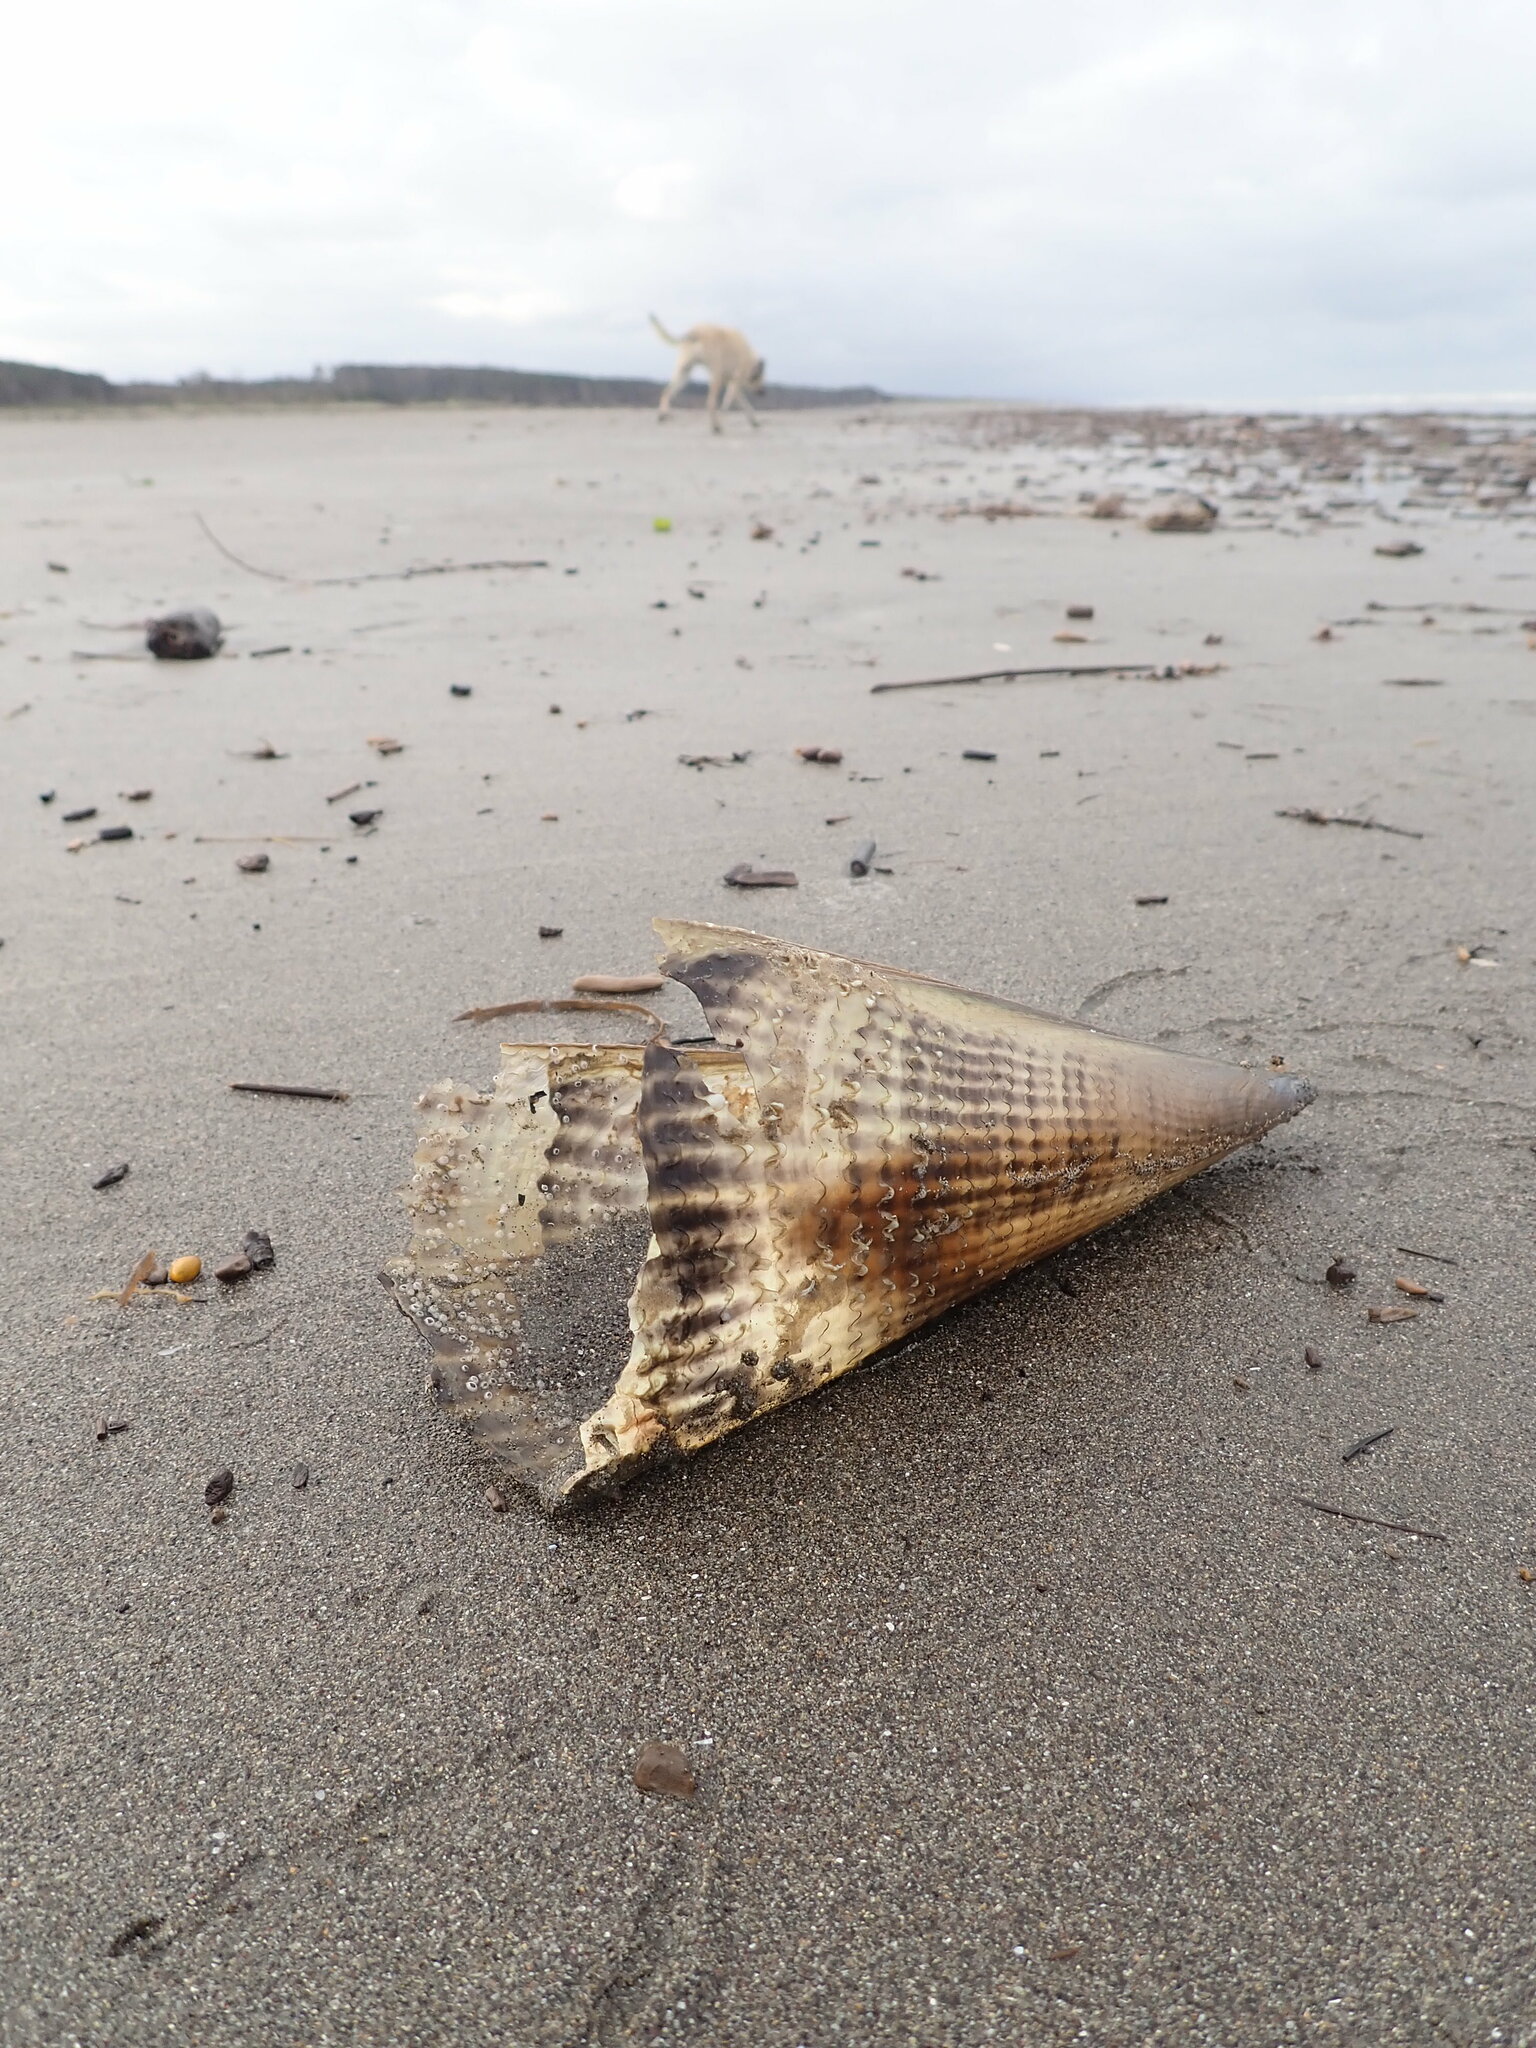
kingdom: Animalia
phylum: Mollusca
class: Bivalvia
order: Ostreida
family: Pinnidae
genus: Atrina
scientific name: Atrina zelandica
